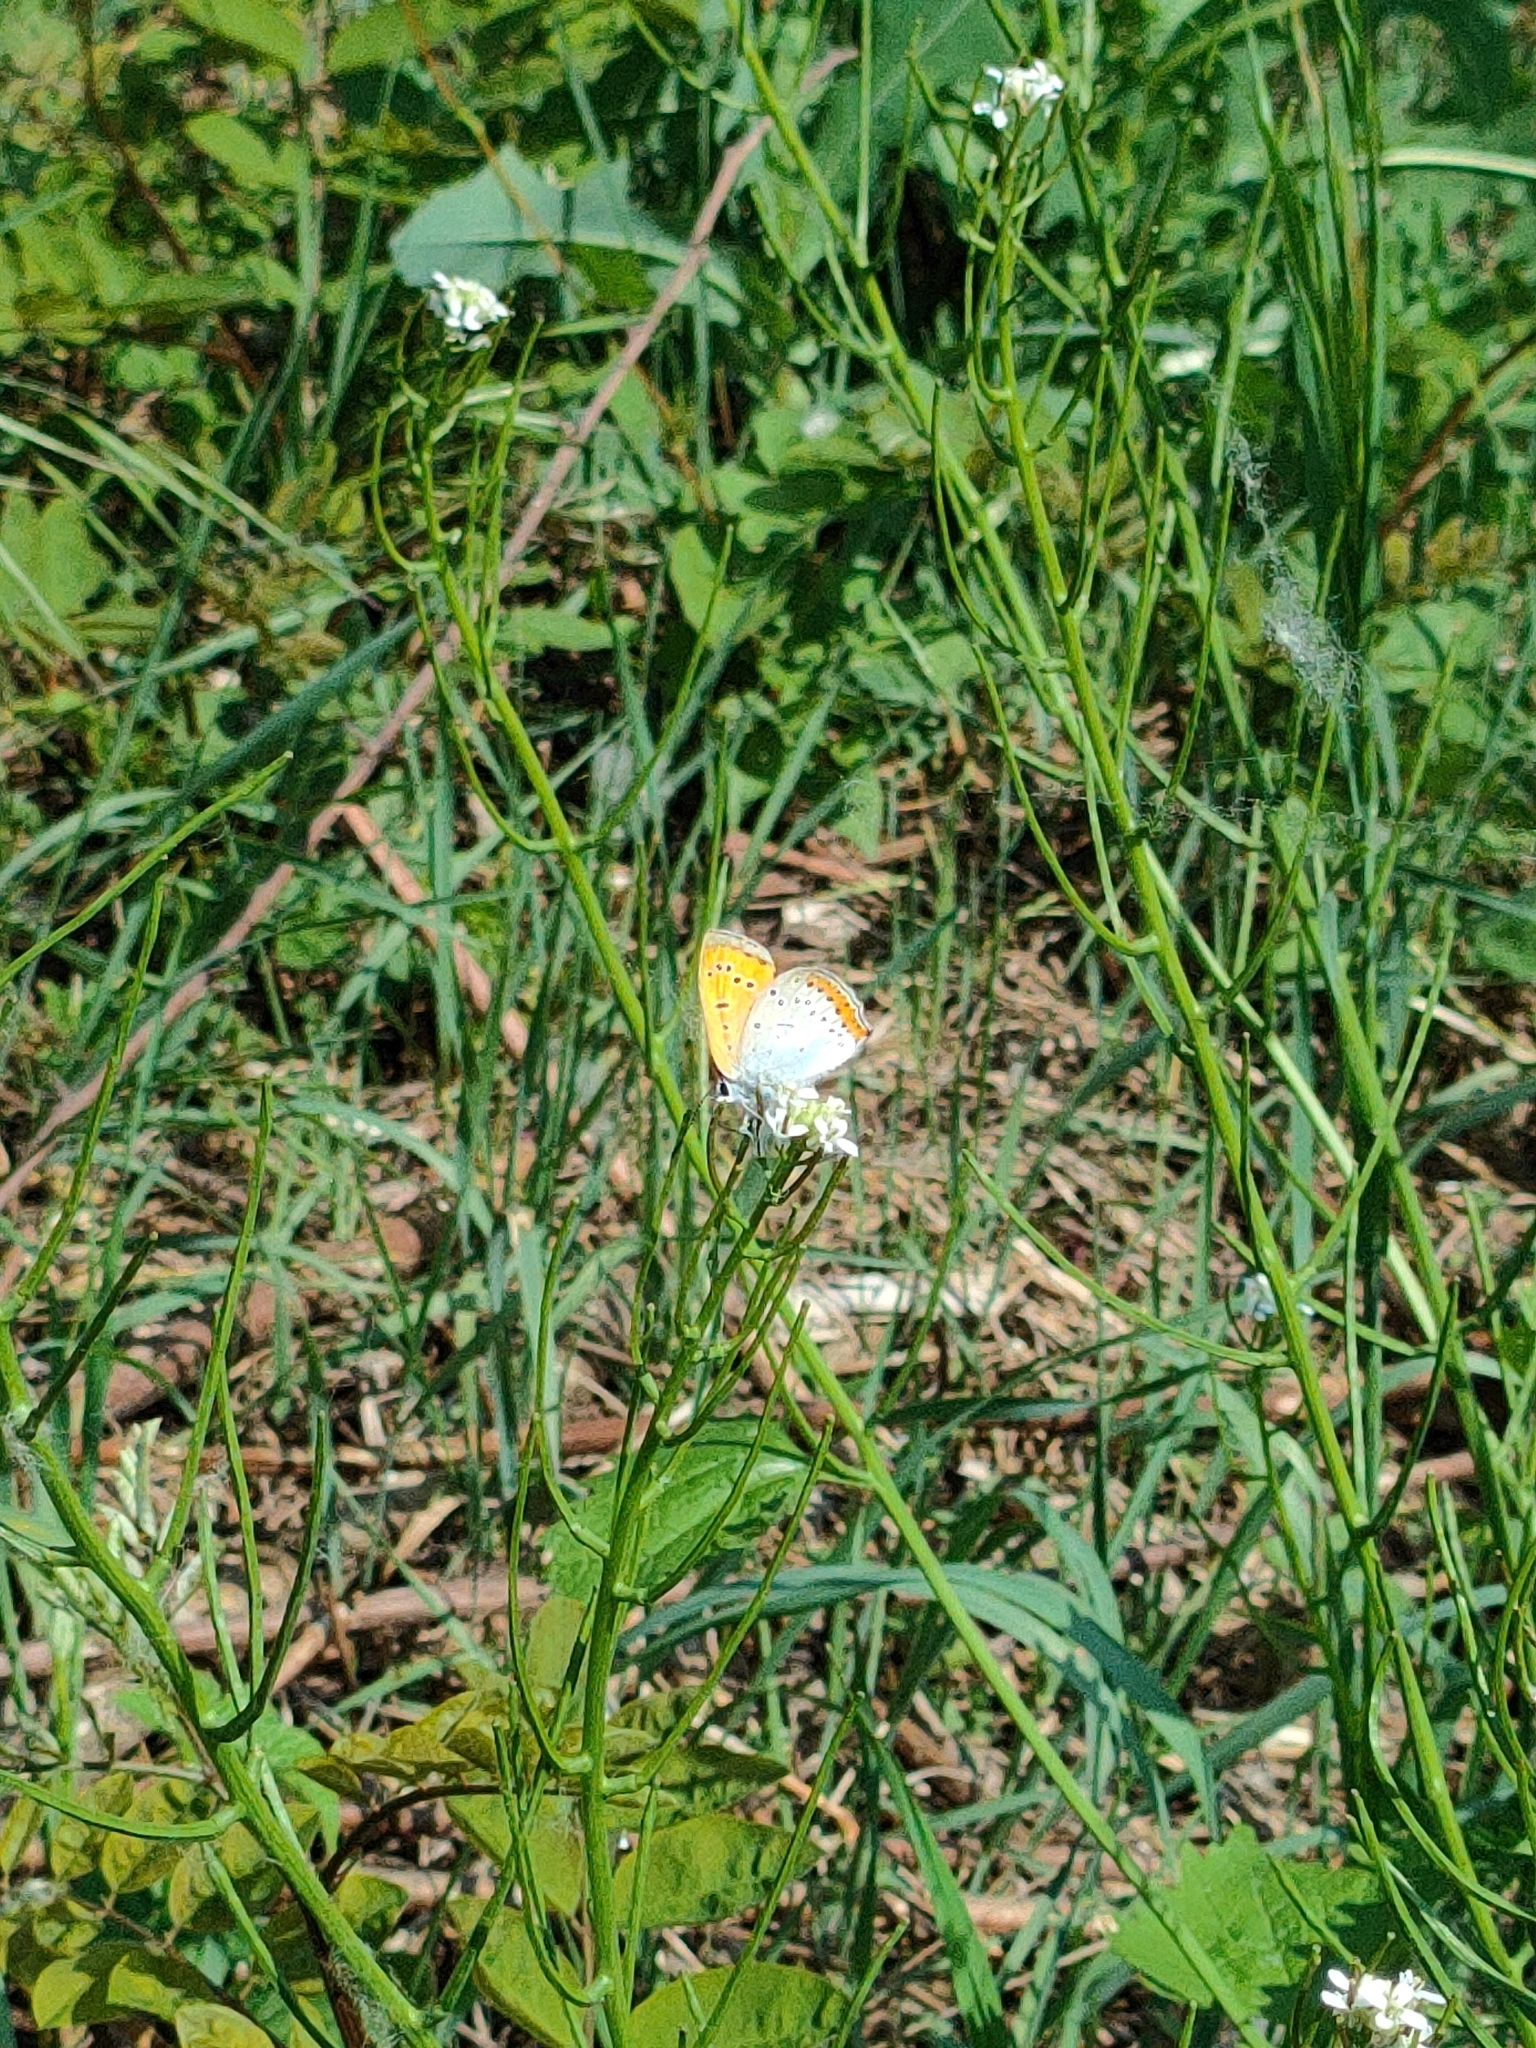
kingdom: Animalia
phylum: Arthropoda
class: Insecta
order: Lepidoptera
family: Lycaenidae
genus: Lycaena
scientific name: Lycaena dispar
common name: Large copper
